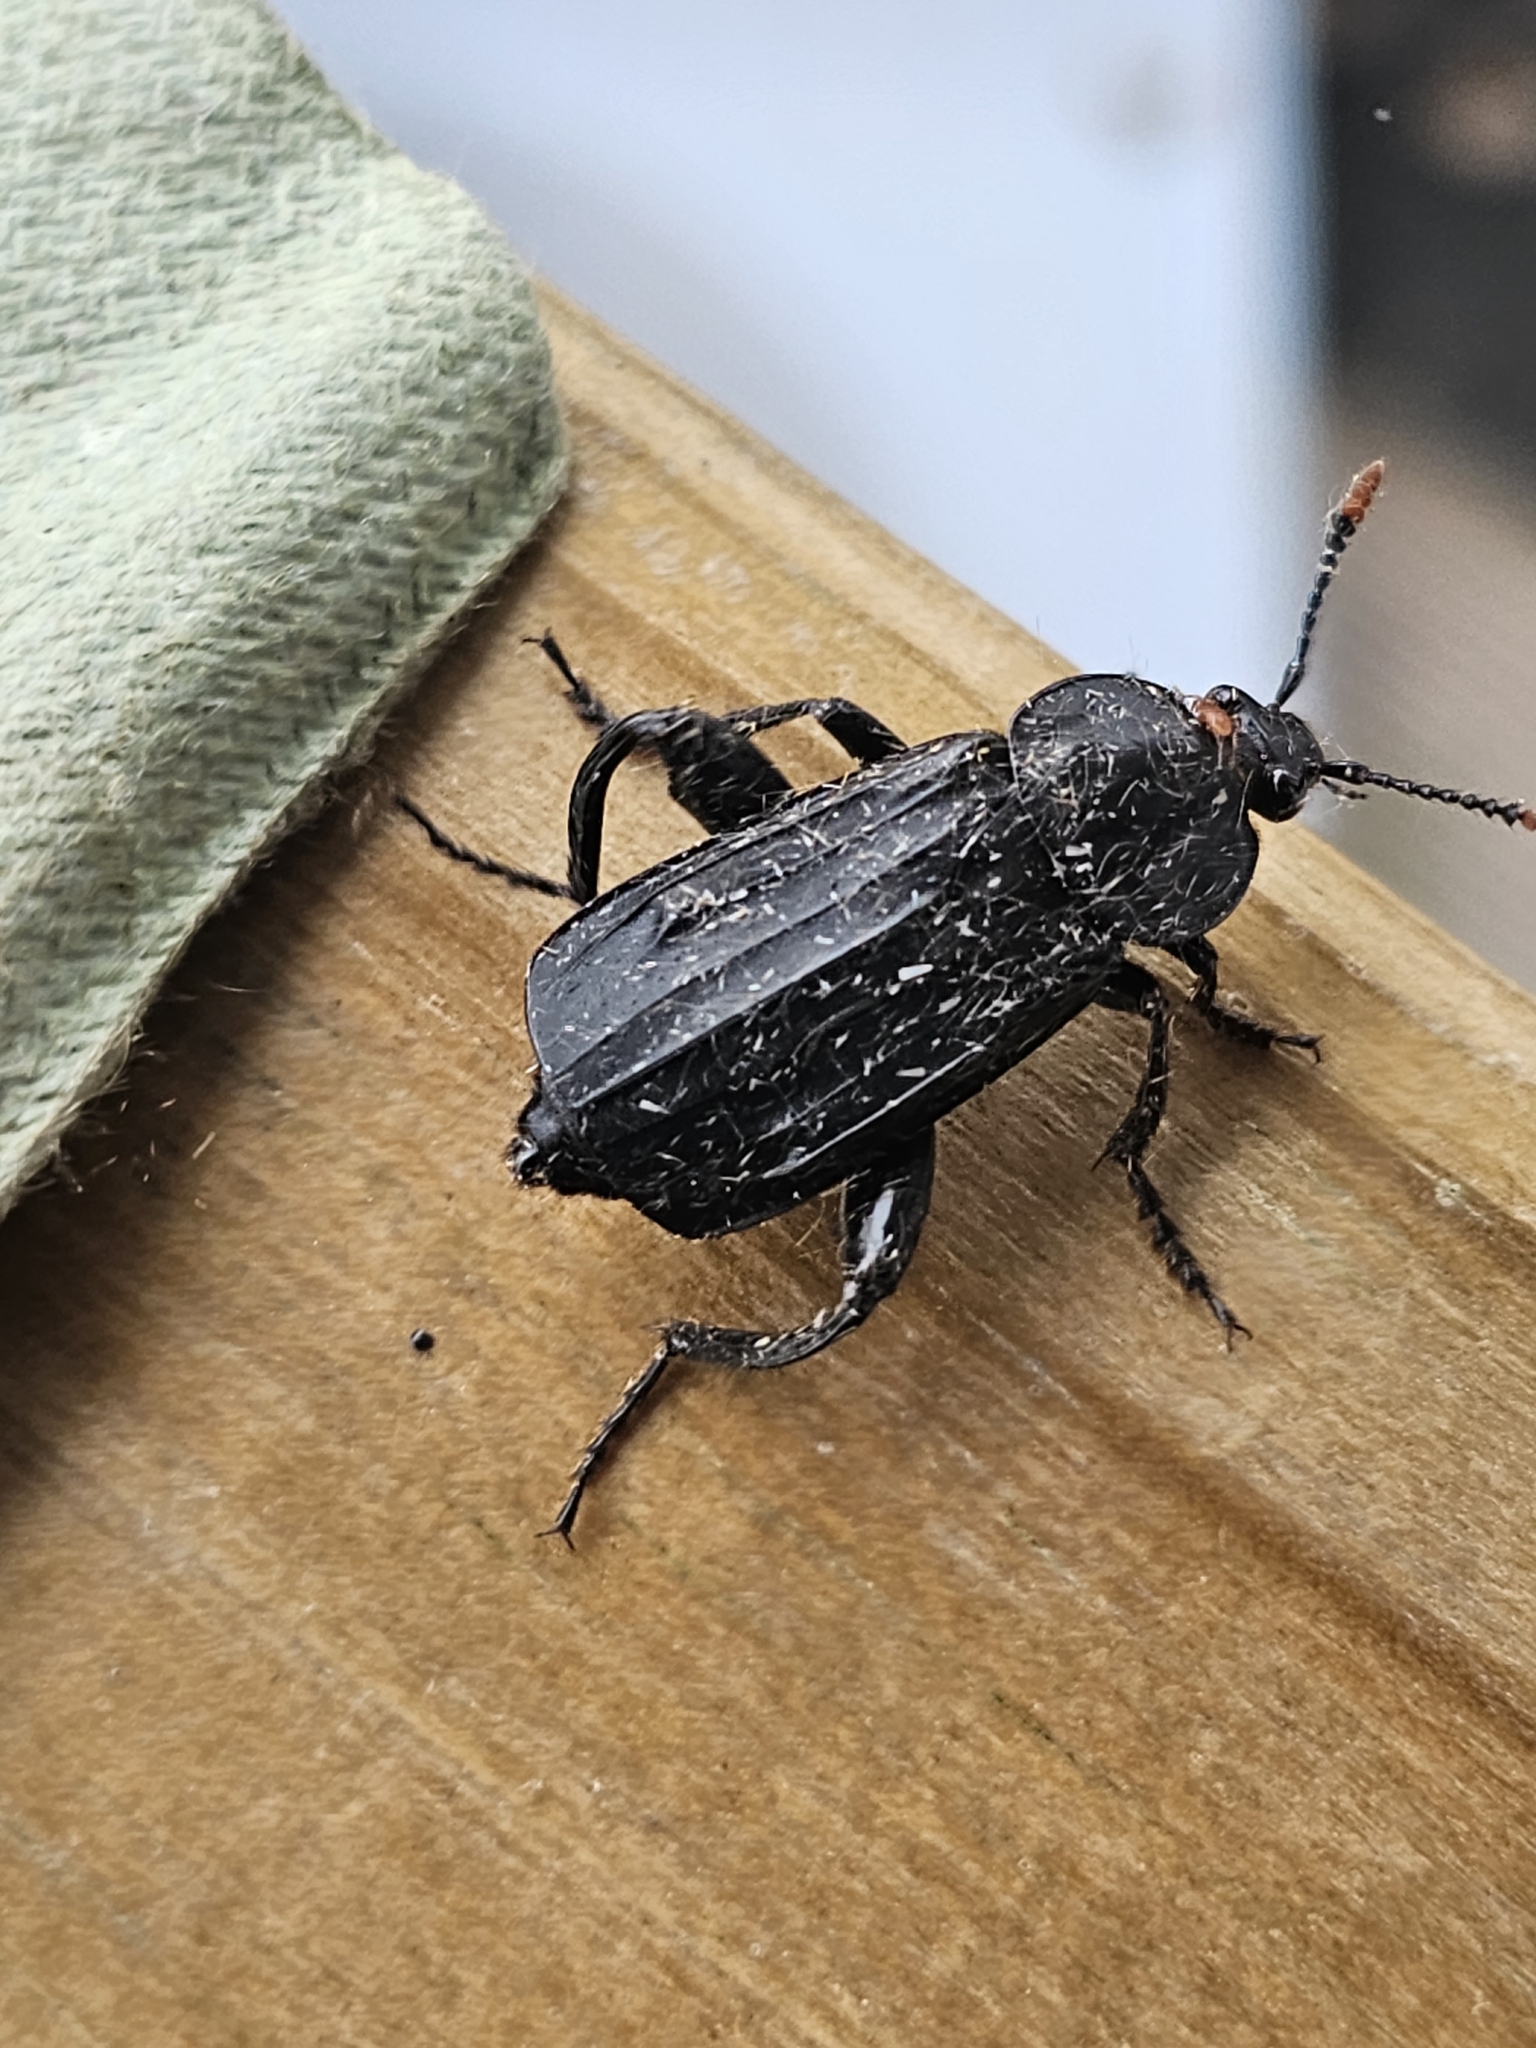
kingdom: Animalia
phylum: Arthropoda
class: Insecta
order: Coleoptera
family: Staphylinidae
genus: Necrodes
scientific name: Necrodes littoralis
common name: Shore sexton beetle
